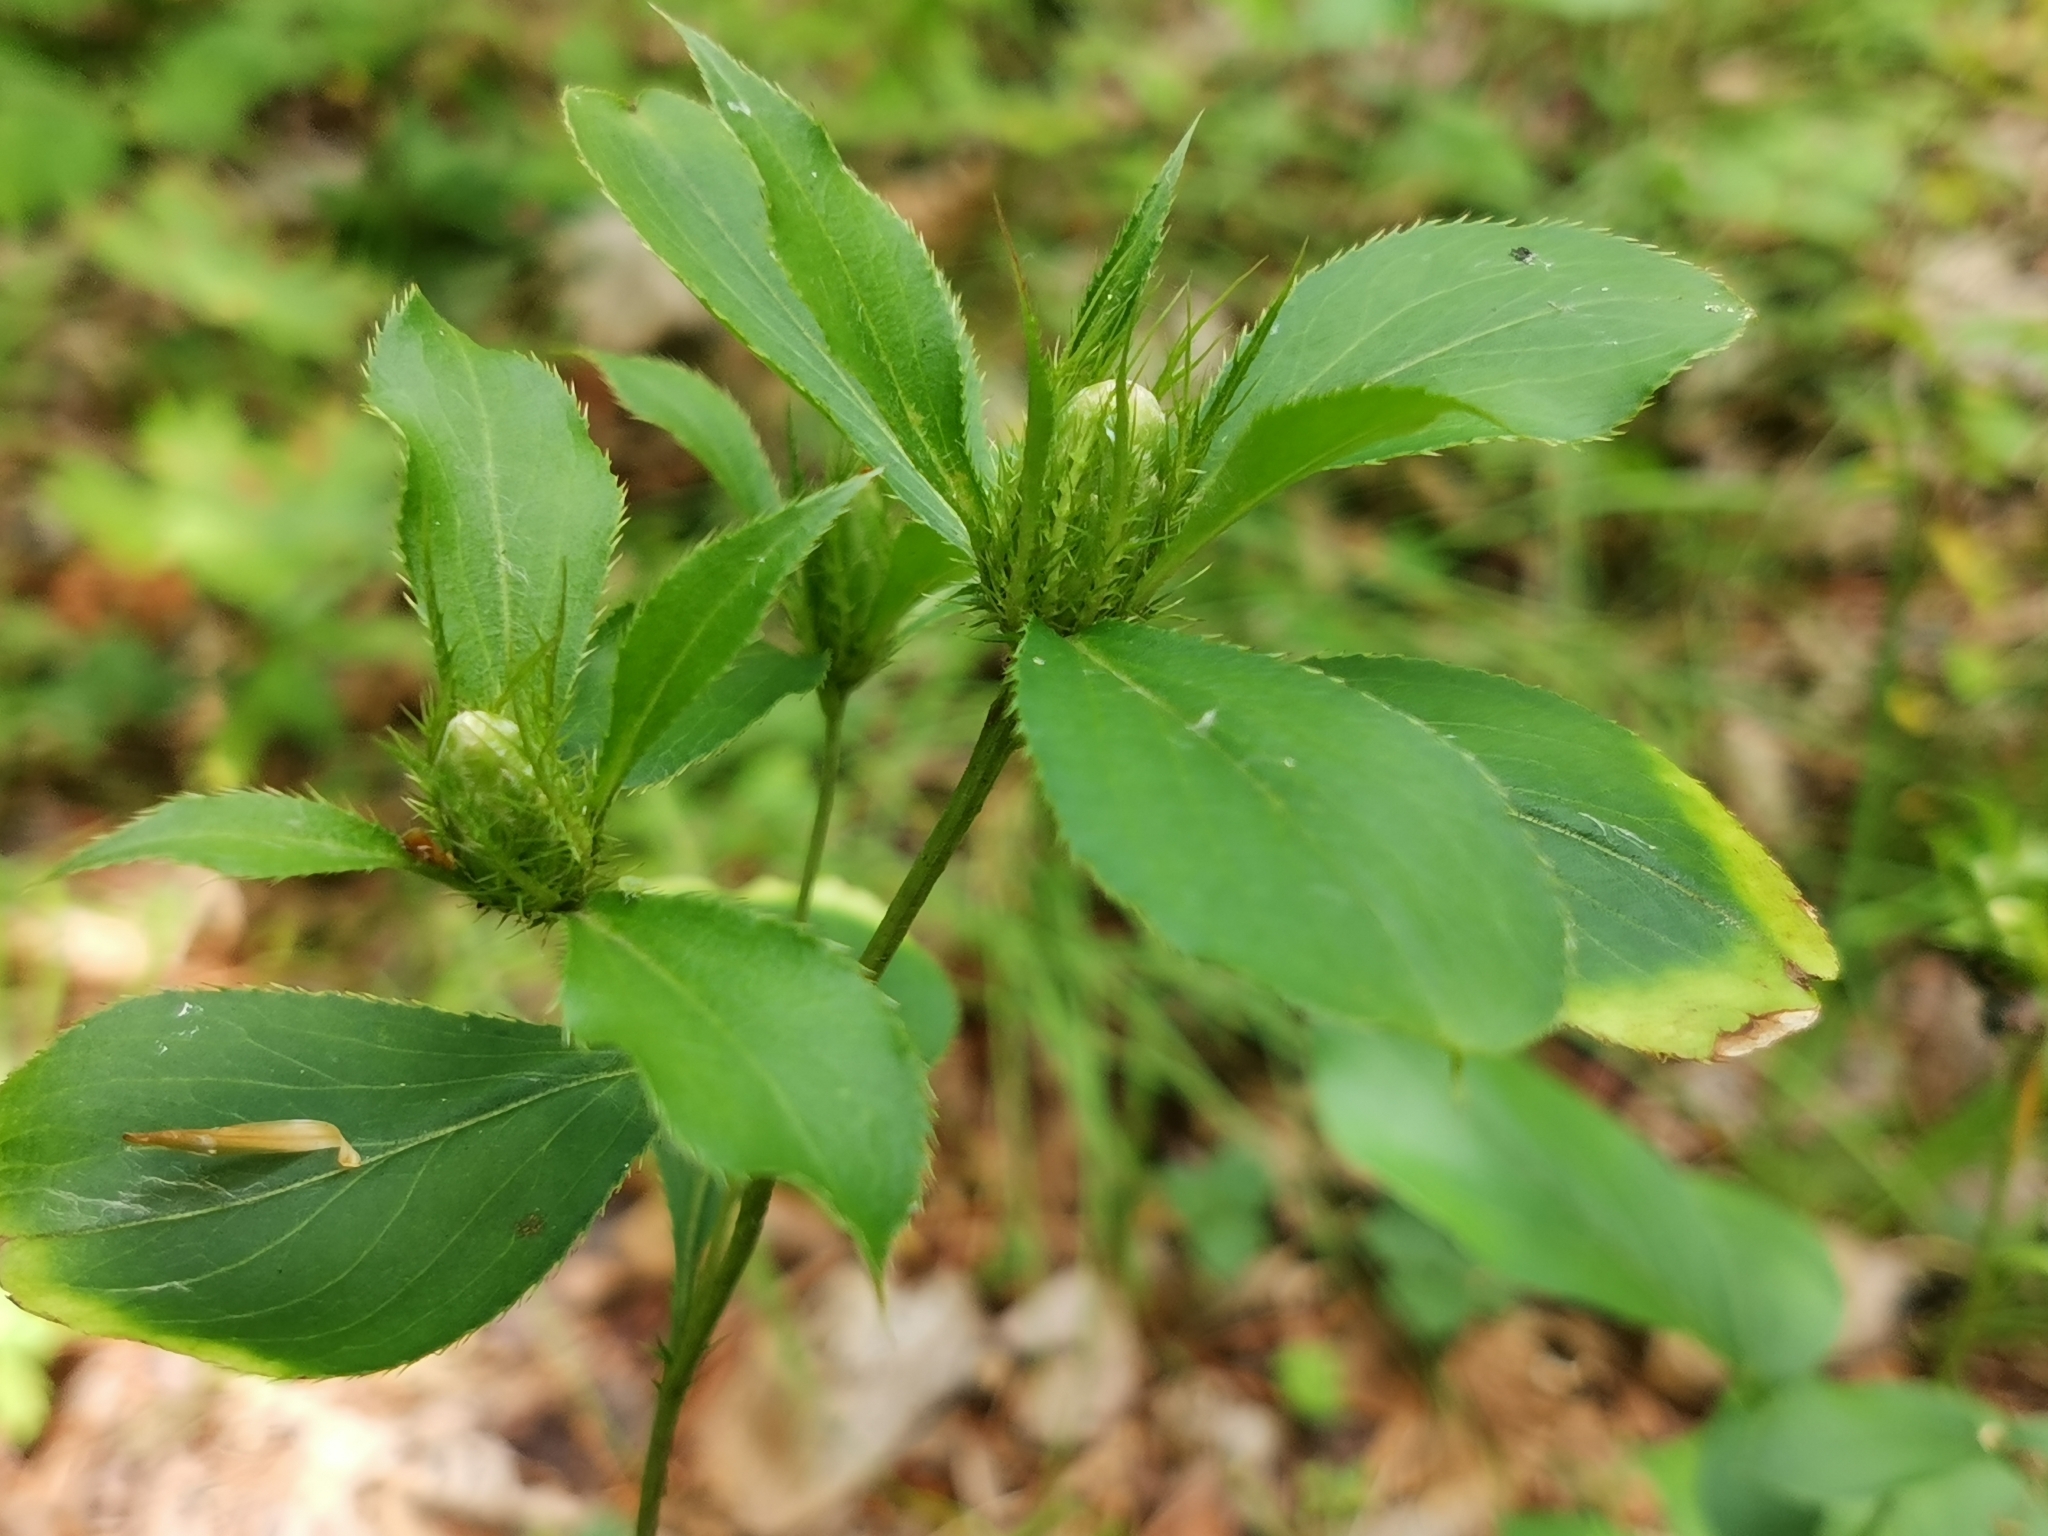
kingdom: Plantae
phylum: Tracheophyta
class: Magnoliopsida
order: Asterales
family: Asteraceae
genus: Atractylodes
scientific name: Atractylodes lancea
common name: Southern tsangshu
